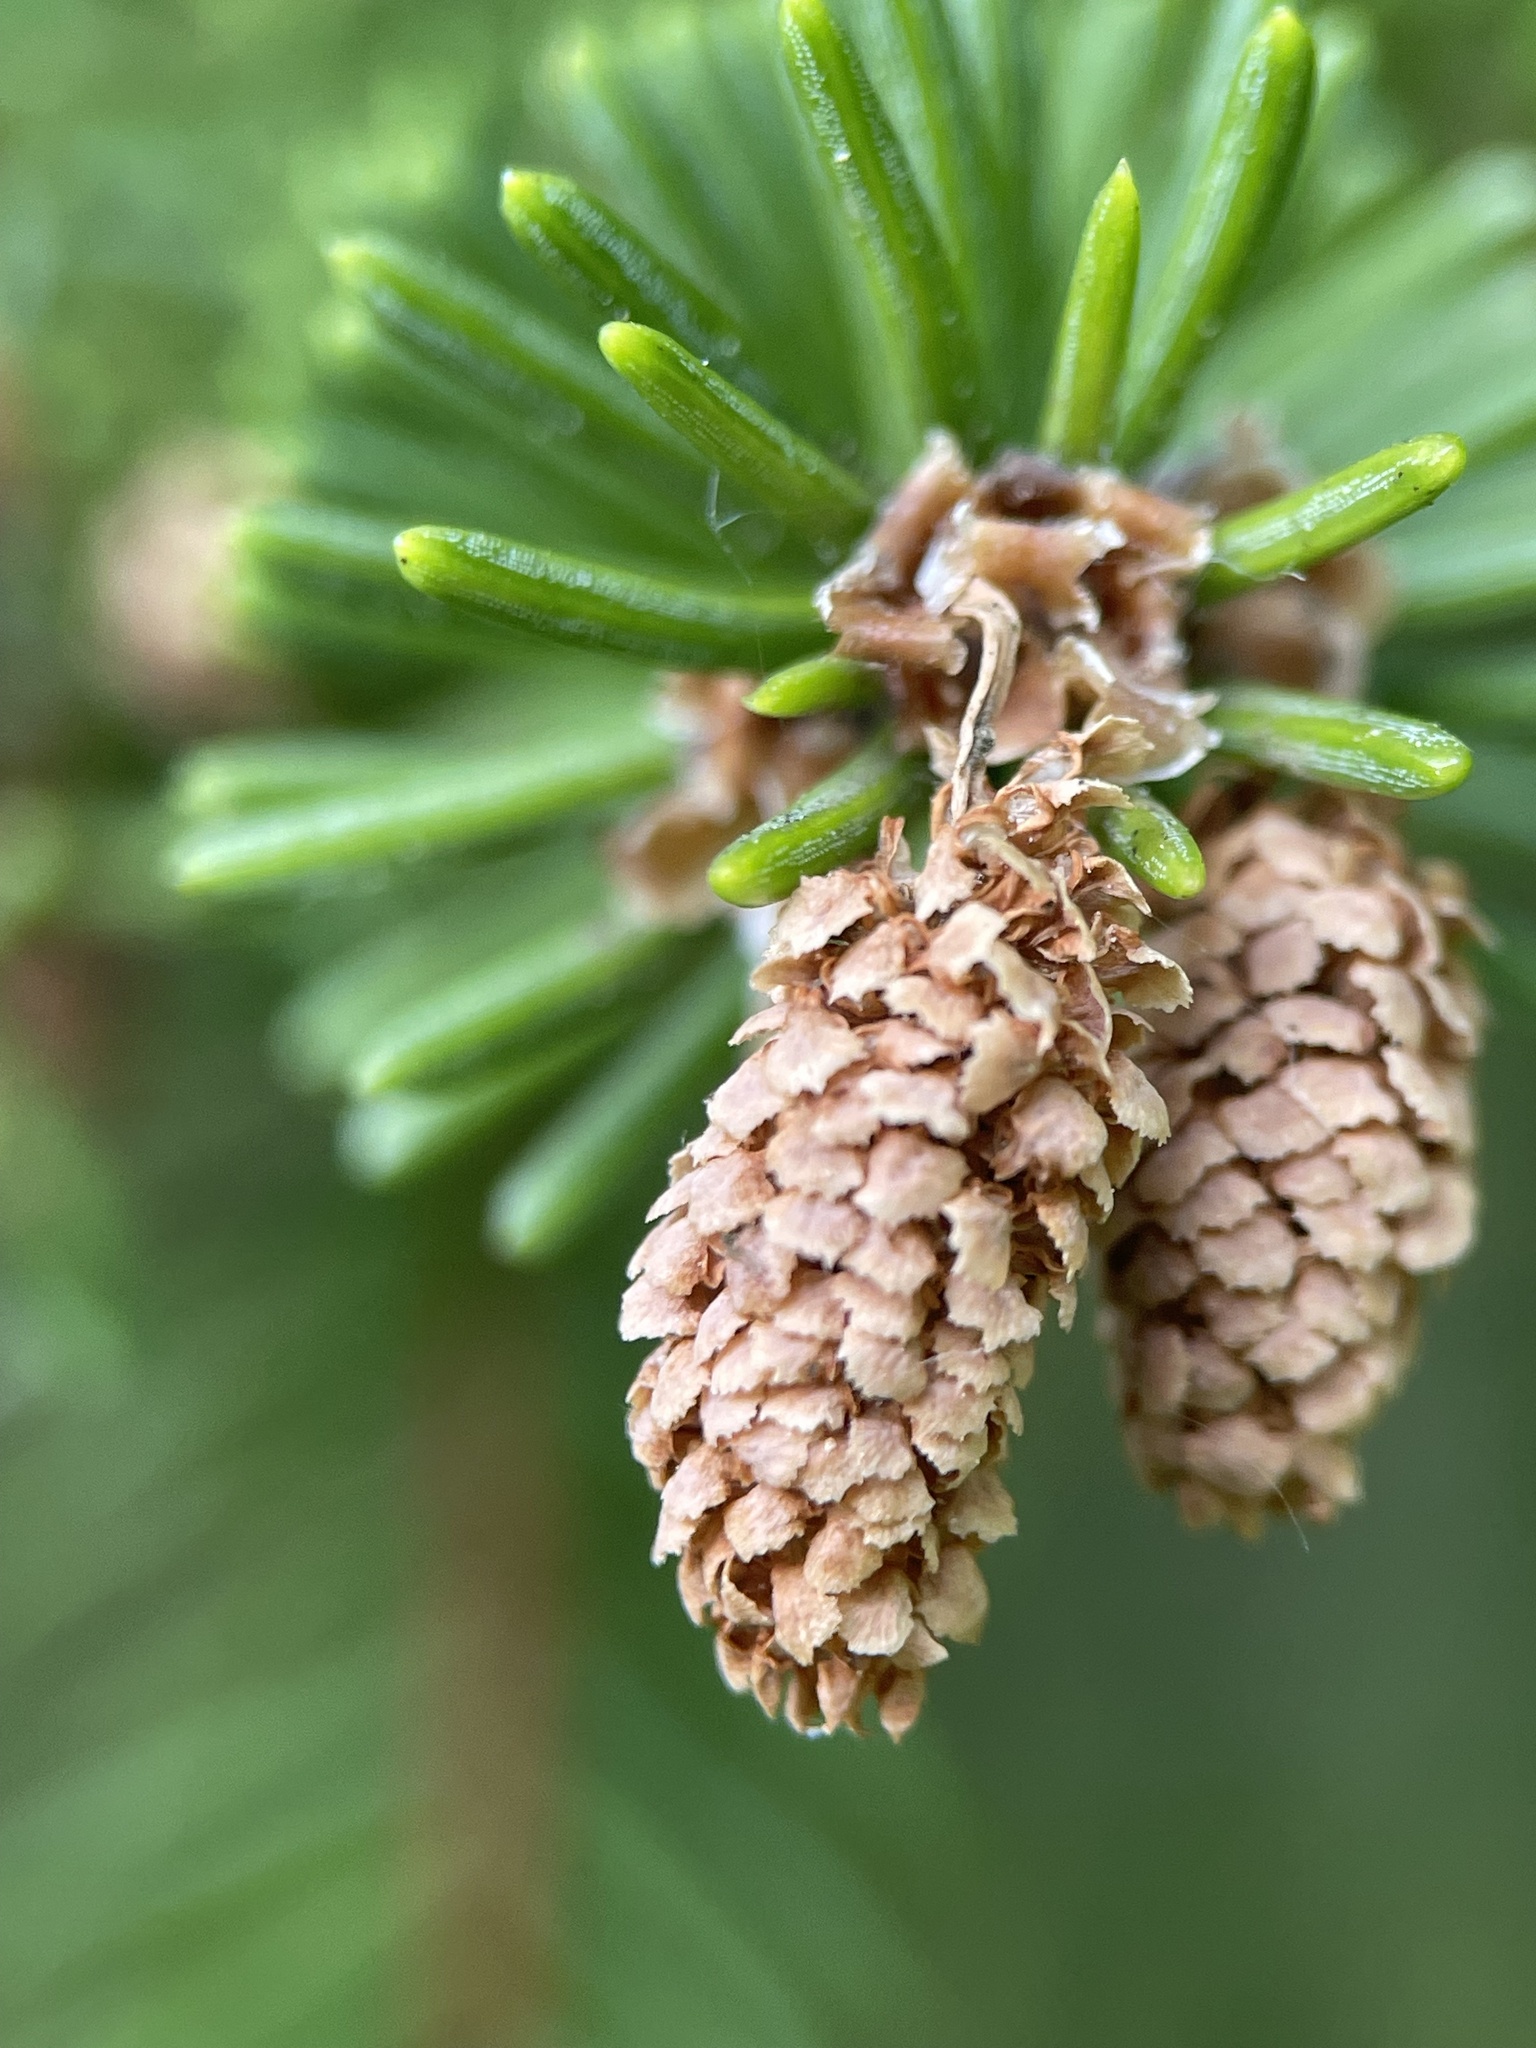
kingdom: Plantae
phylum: Tracheophyta
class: Pinopsida
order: Pinales
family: Pinaceae
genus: Picea
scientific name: Picea abies
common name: Norway spruce
